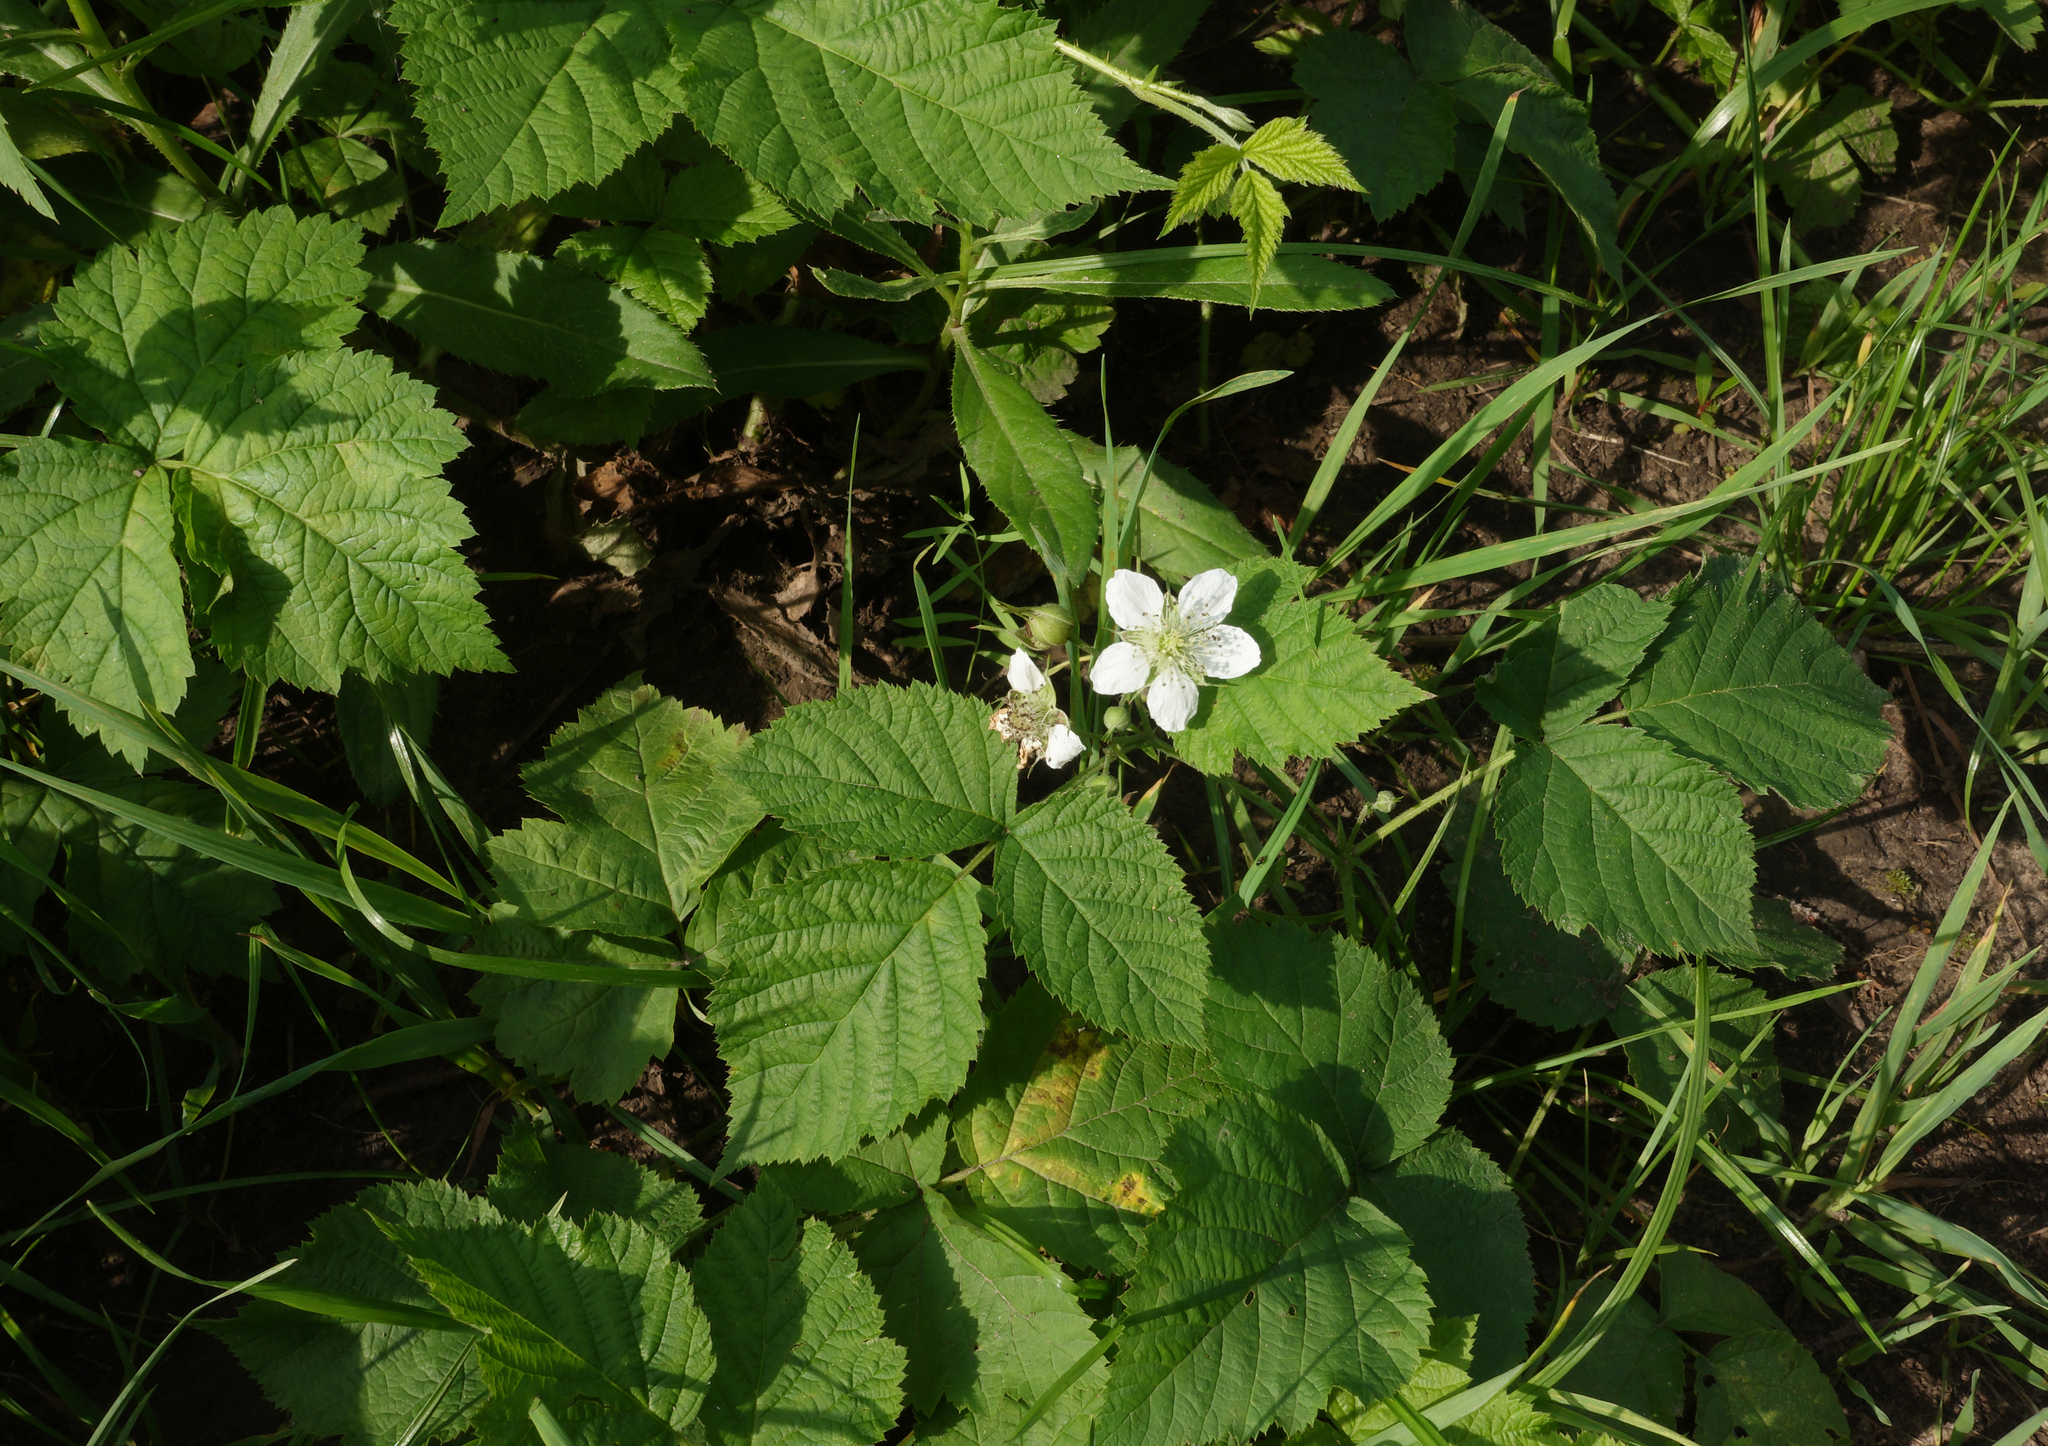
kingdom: Plantae
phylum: Tracheophyta
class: Magnoliopsida
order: Rosales
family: Rosaceae
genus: Rubus
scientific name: Rubus caesius
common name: Dewberry
